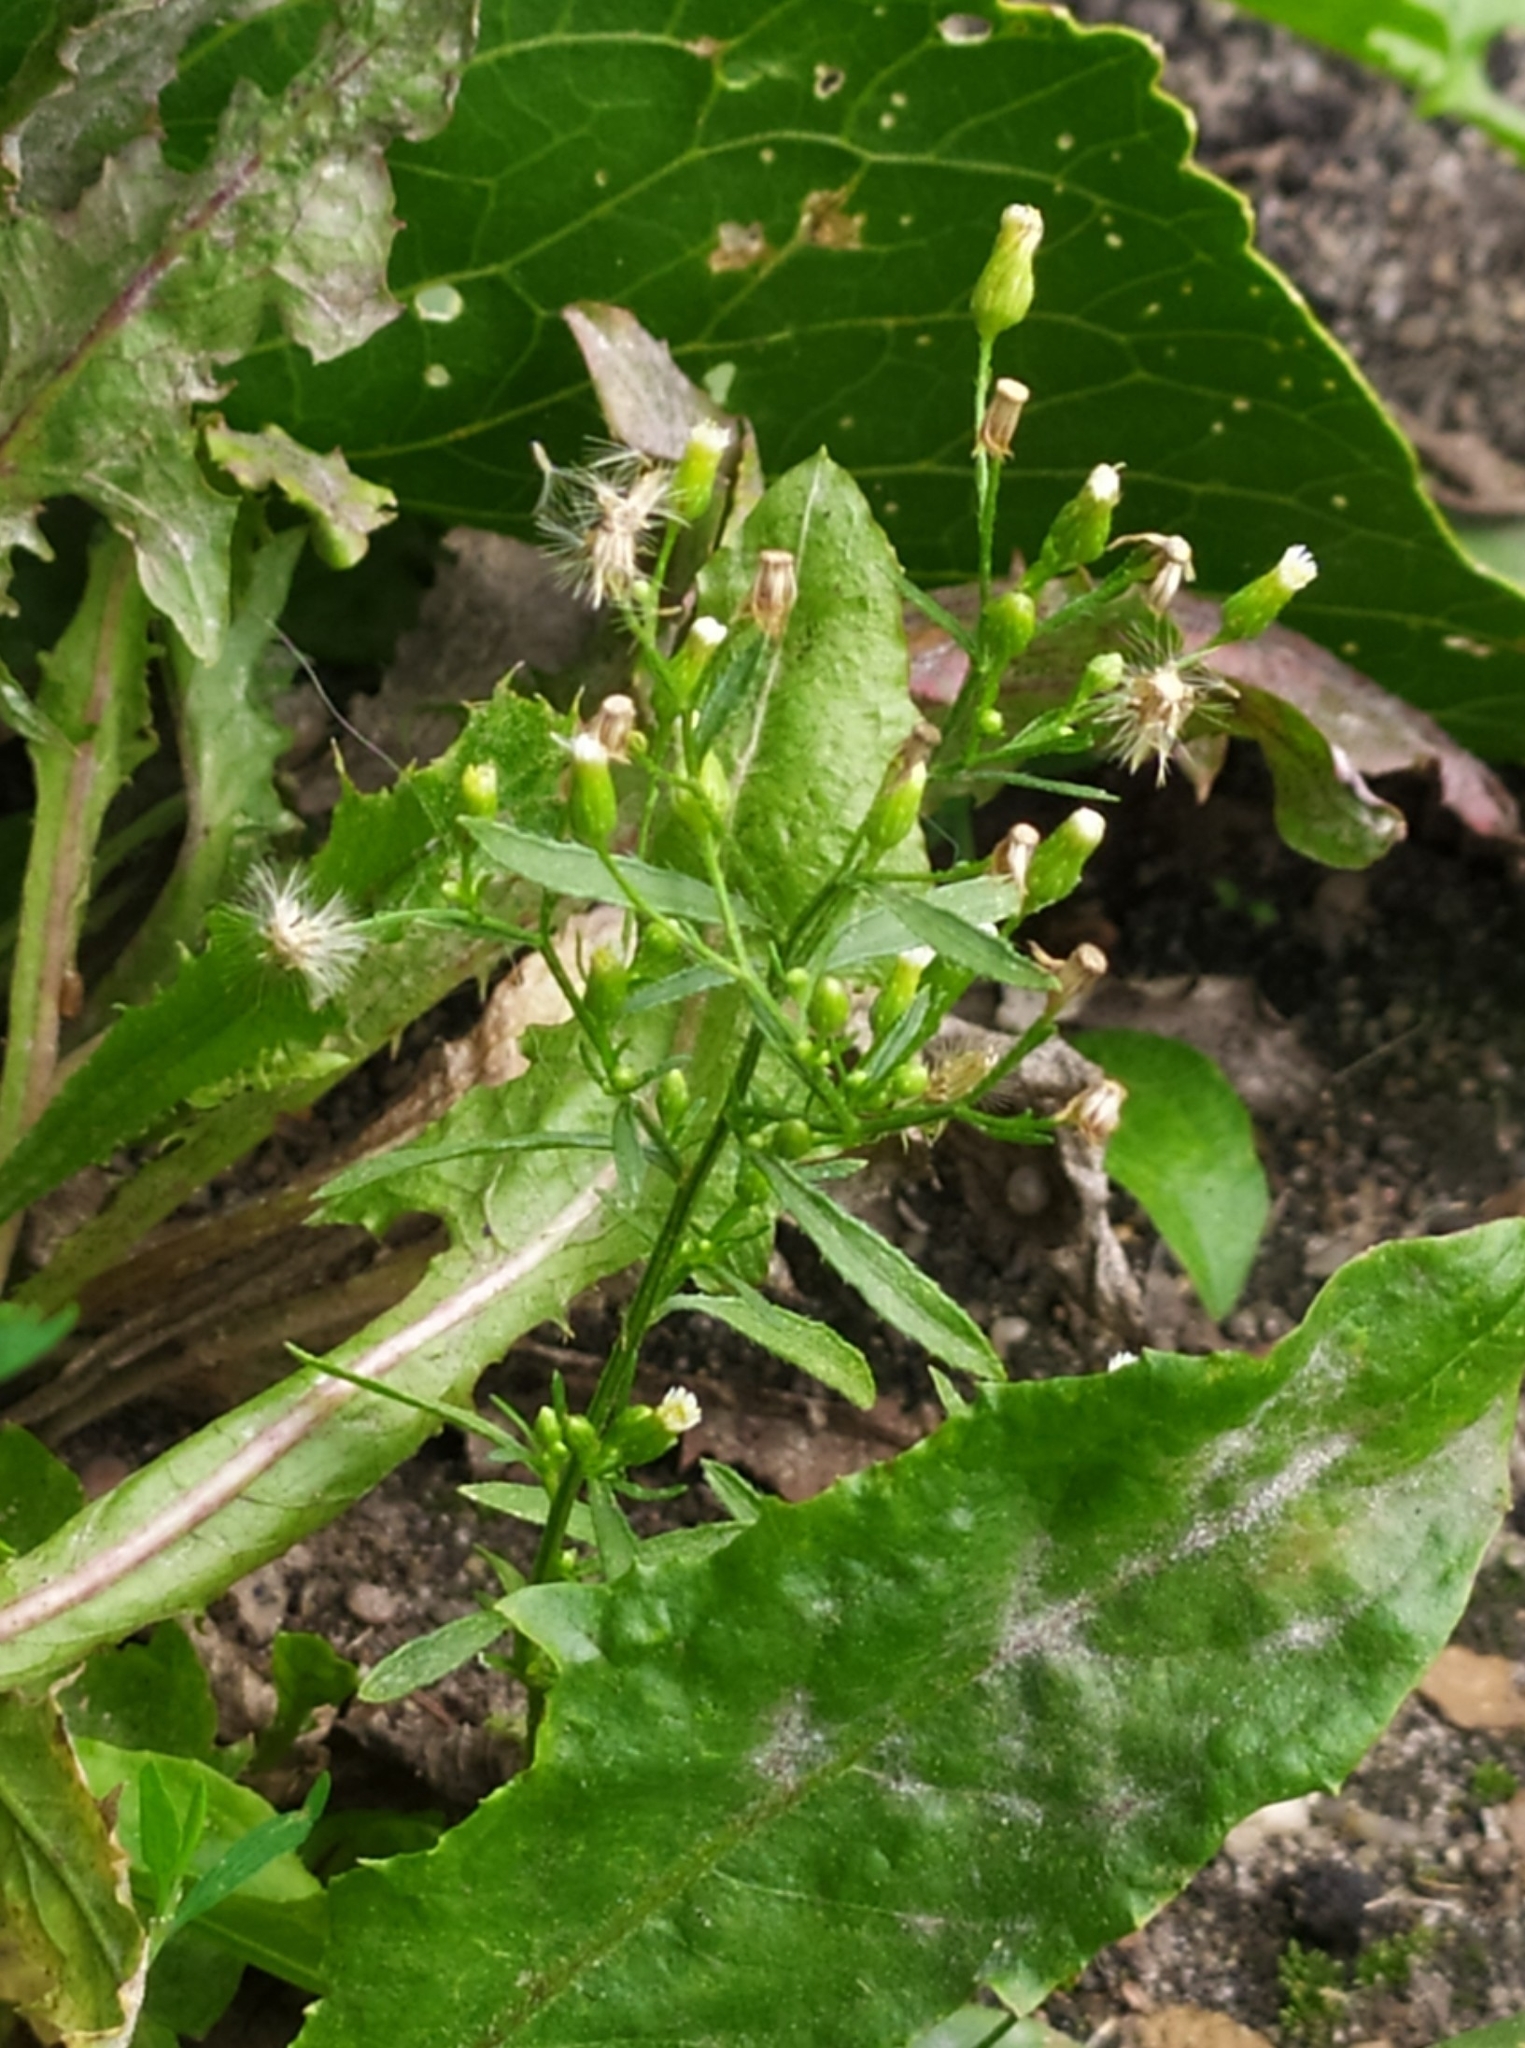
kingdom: Plantae
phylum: Tracheophyta
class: Magnoliopsida
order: Asterales
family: Asteraceae
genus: Erigeron
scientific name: Erigeron canadensis
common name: Canadian fleabane
